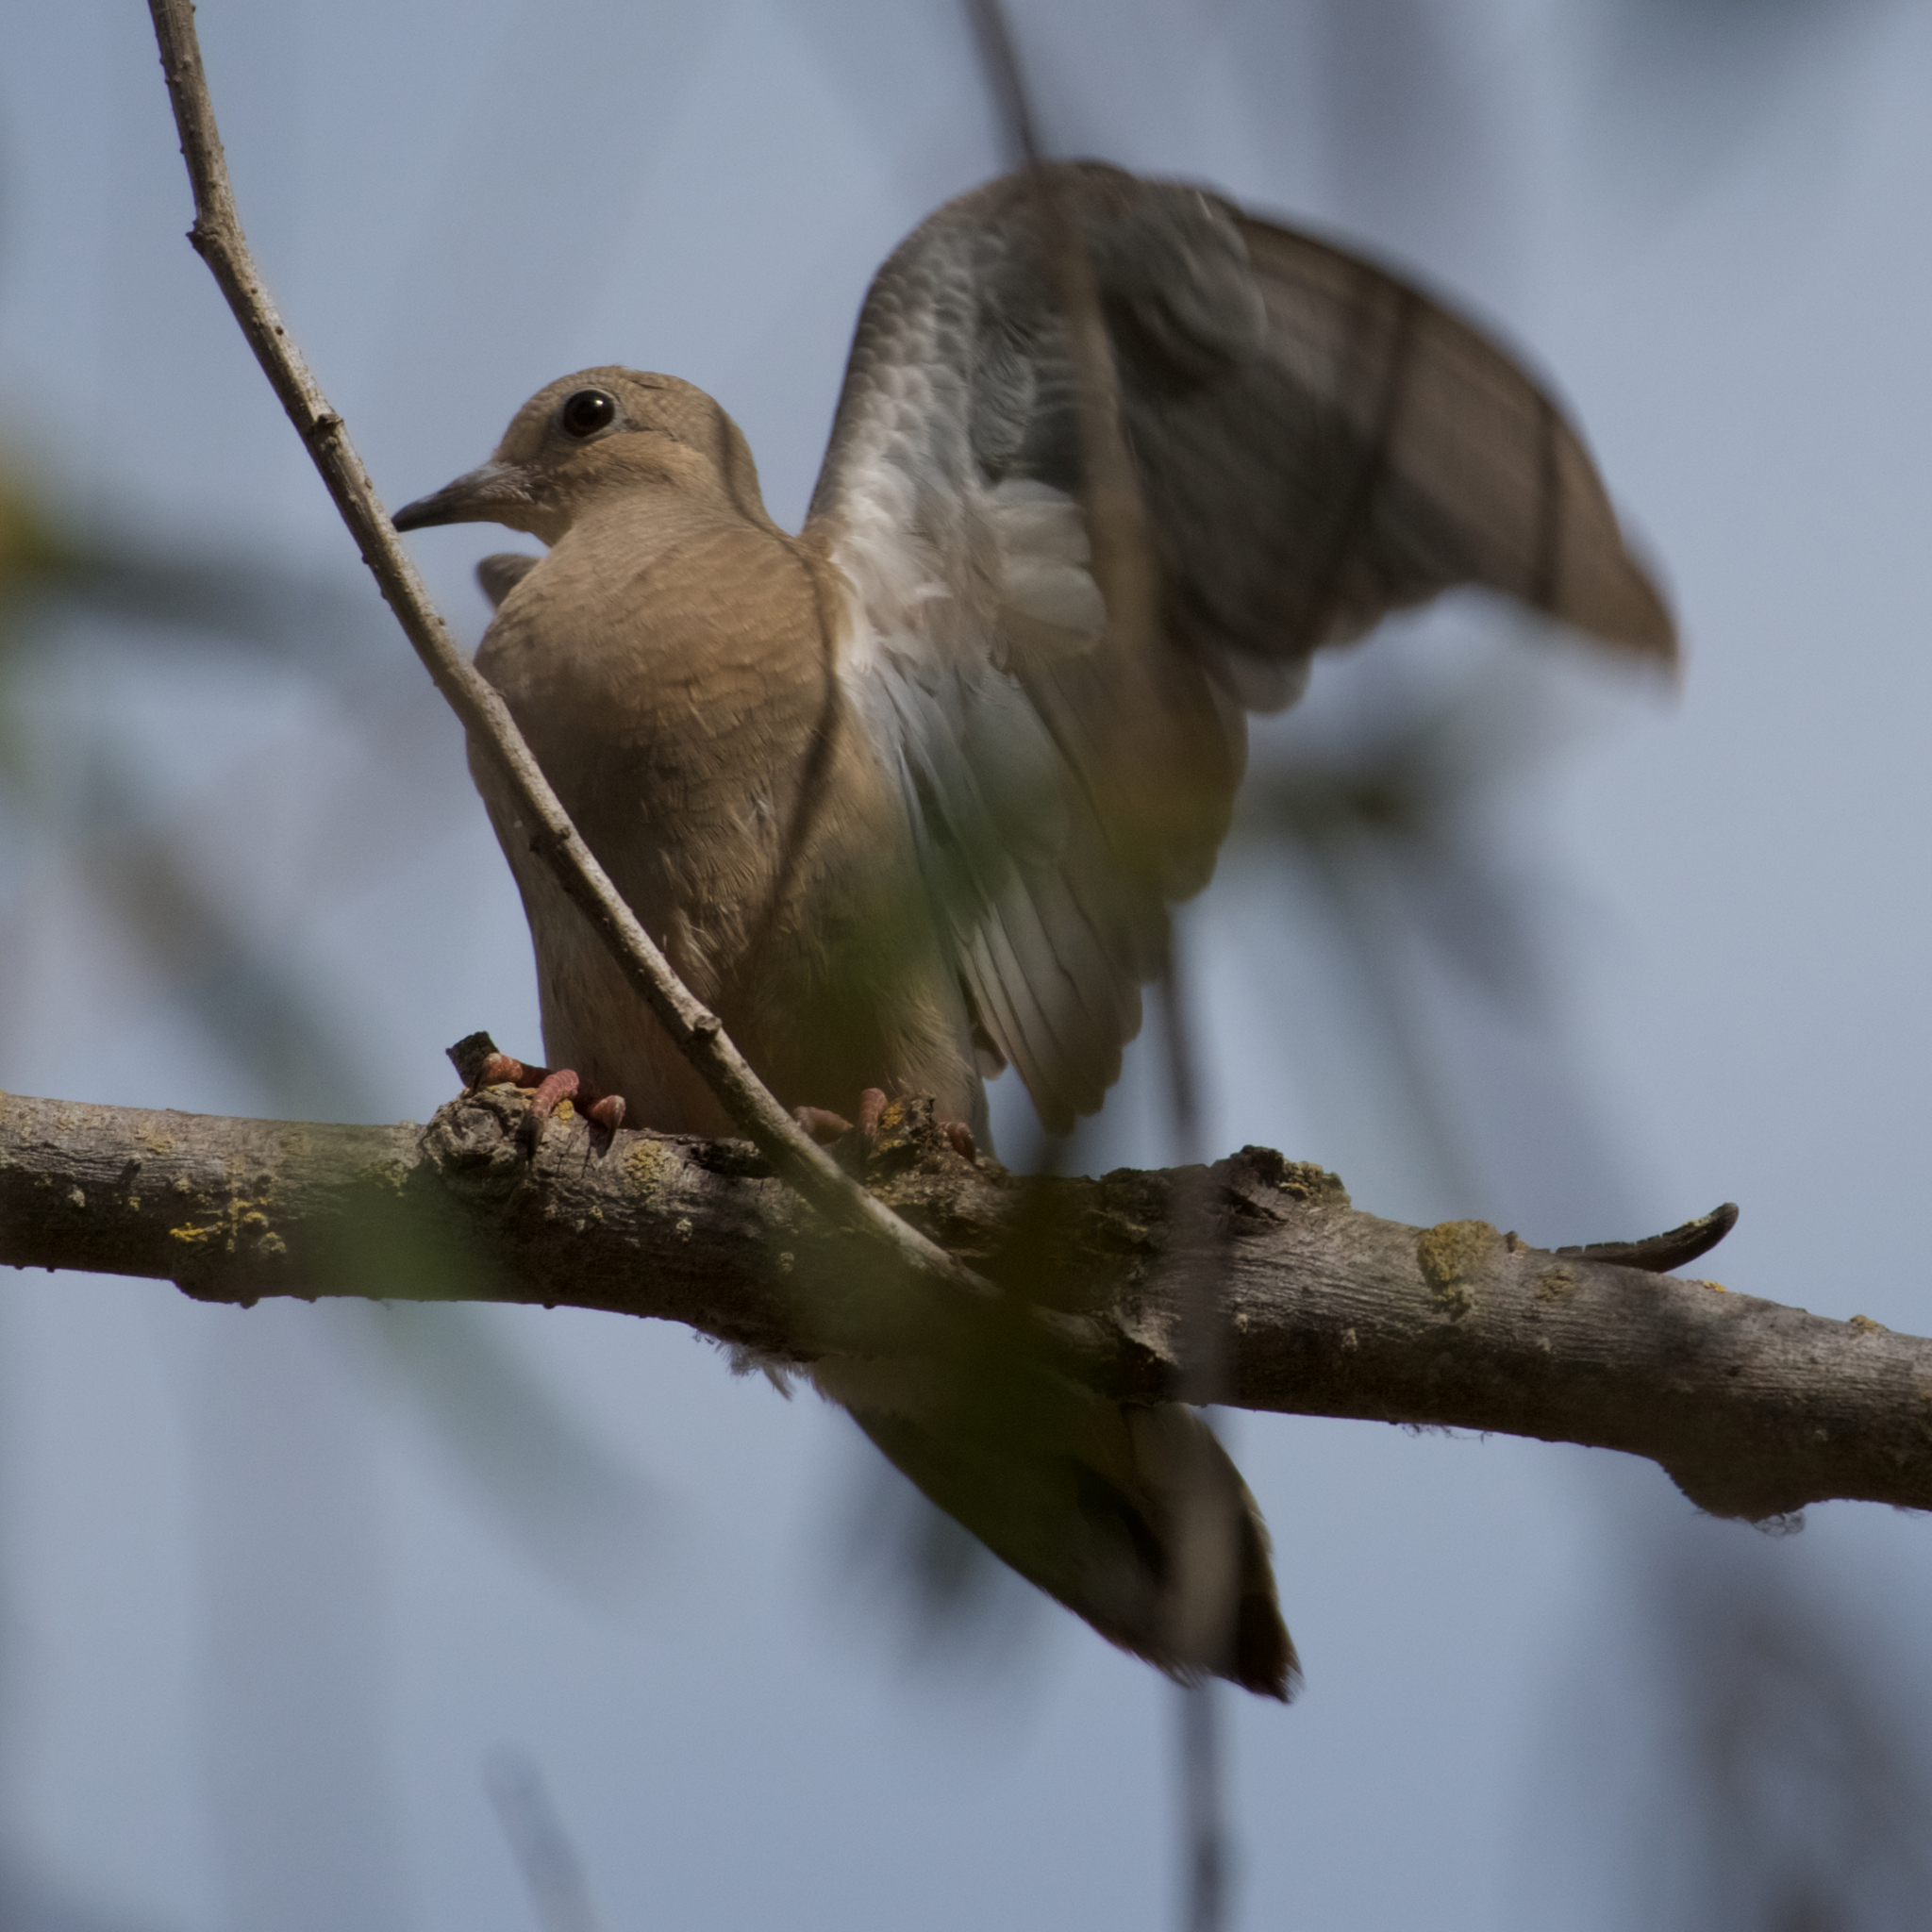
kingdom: Animalia
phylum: Chordata
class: Aves
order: Columbiformes
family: Columbidae
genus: Zenaida
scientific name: Zenaida macroura
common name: Mourning dove
